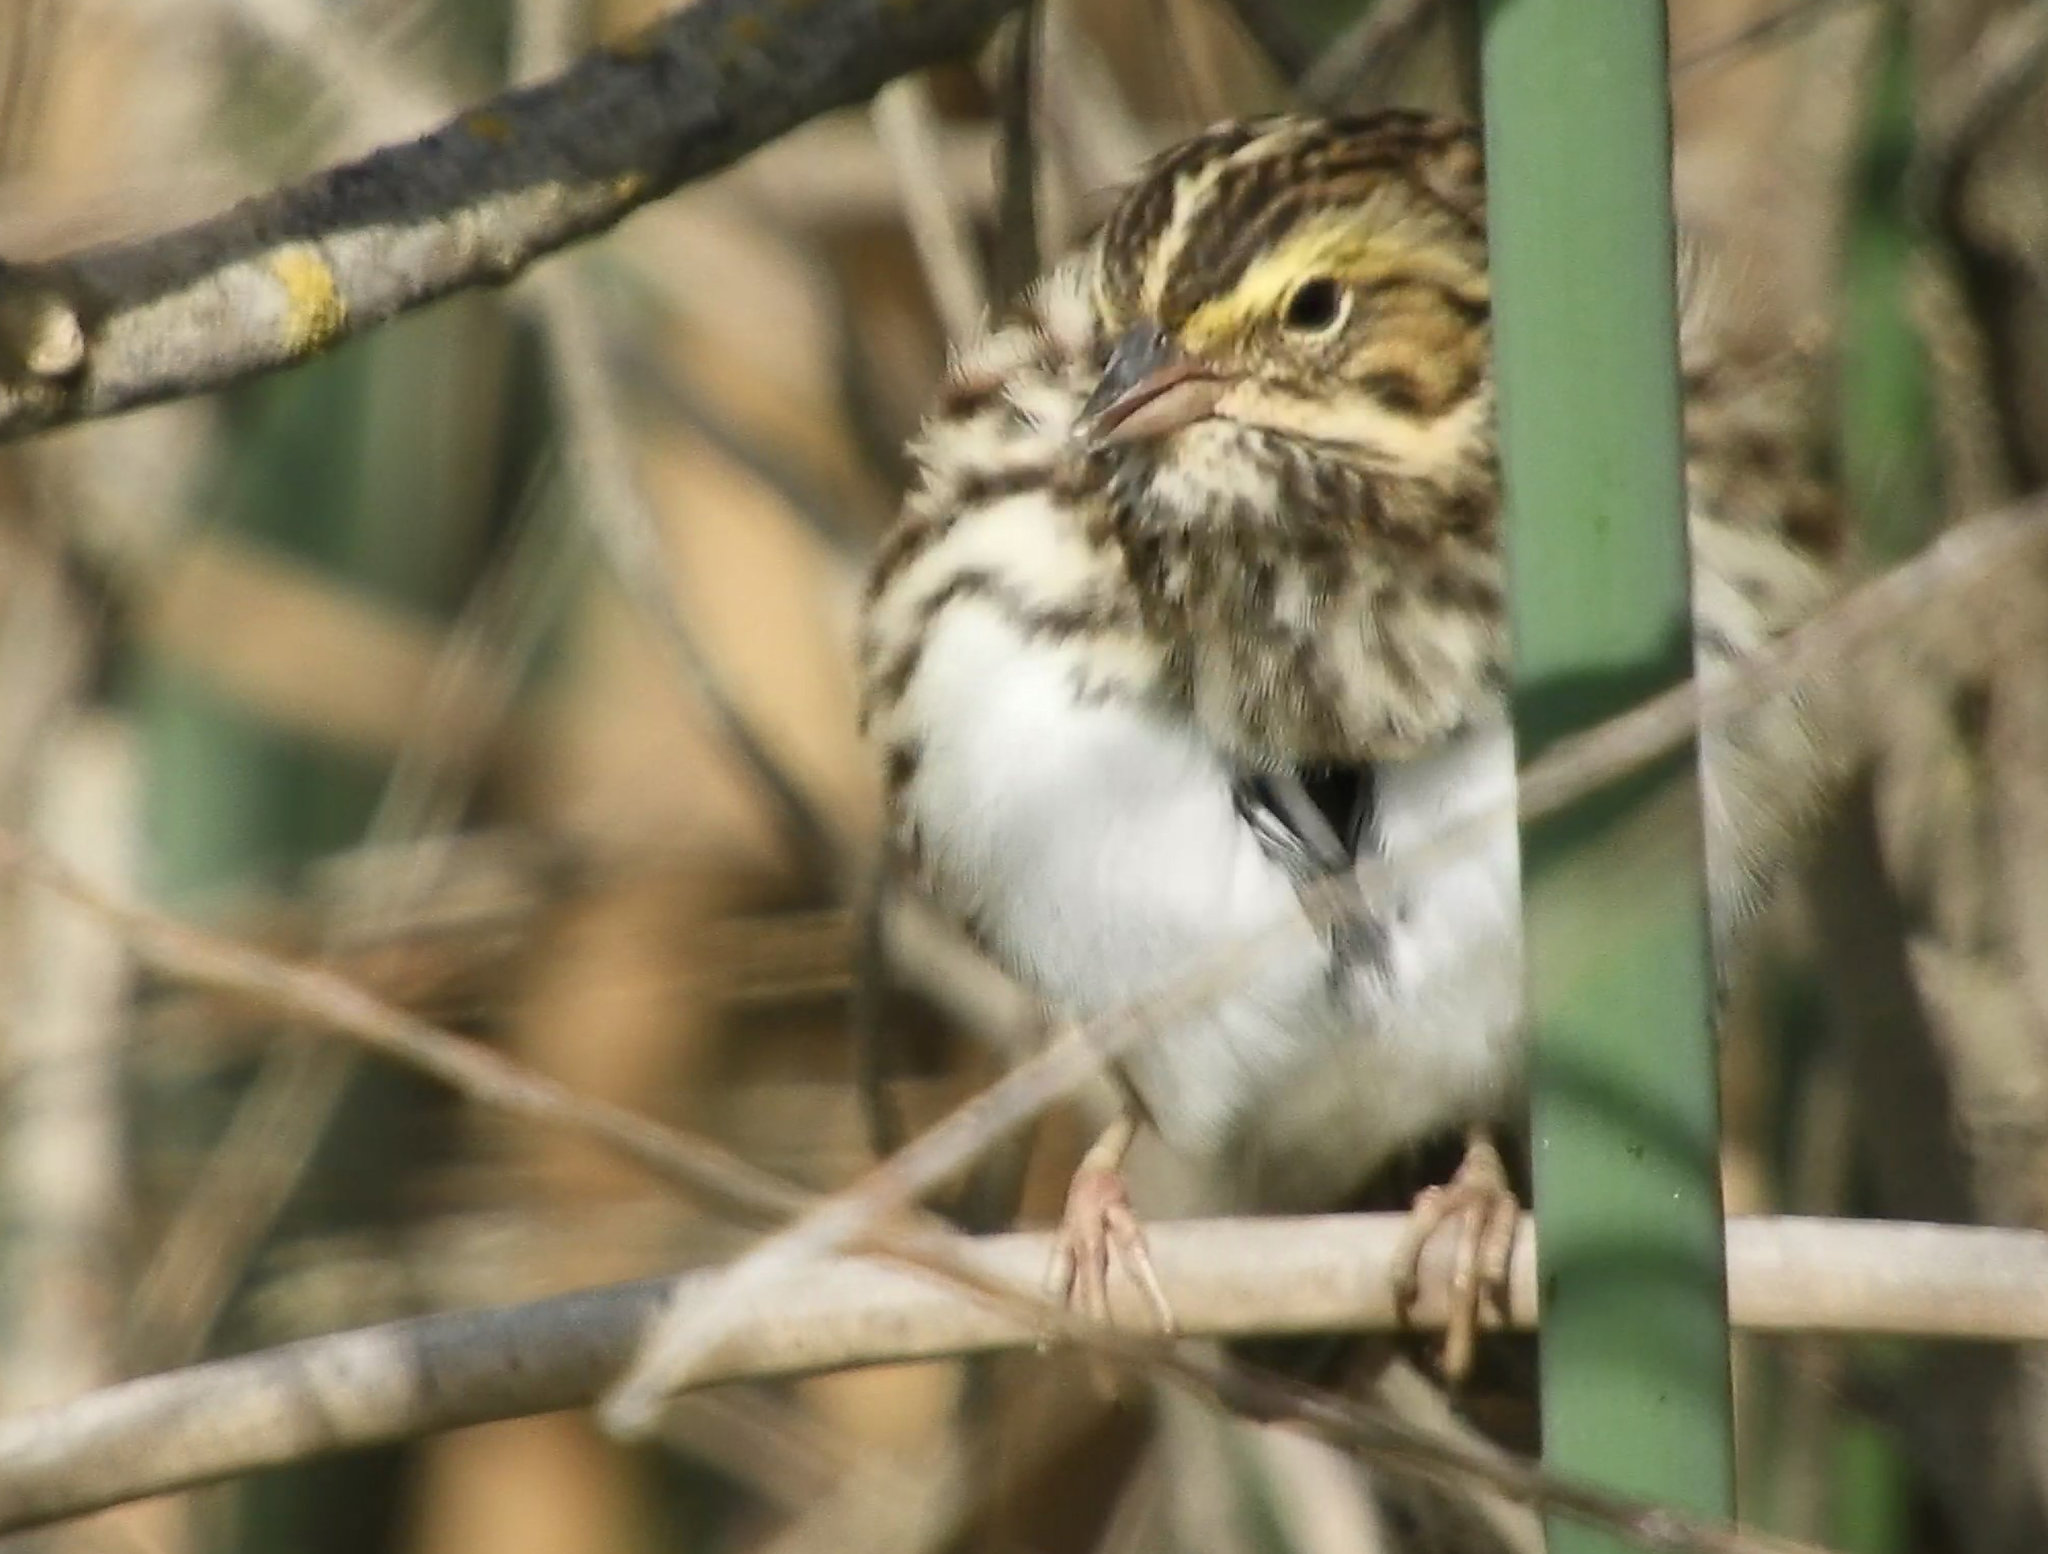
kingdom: Animalia
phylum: Chordata
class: Aves
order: Passeriformes
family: Passerellidae
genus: Passerculus
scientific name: Passerculus sandwichensis
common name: Savannah sparrow
